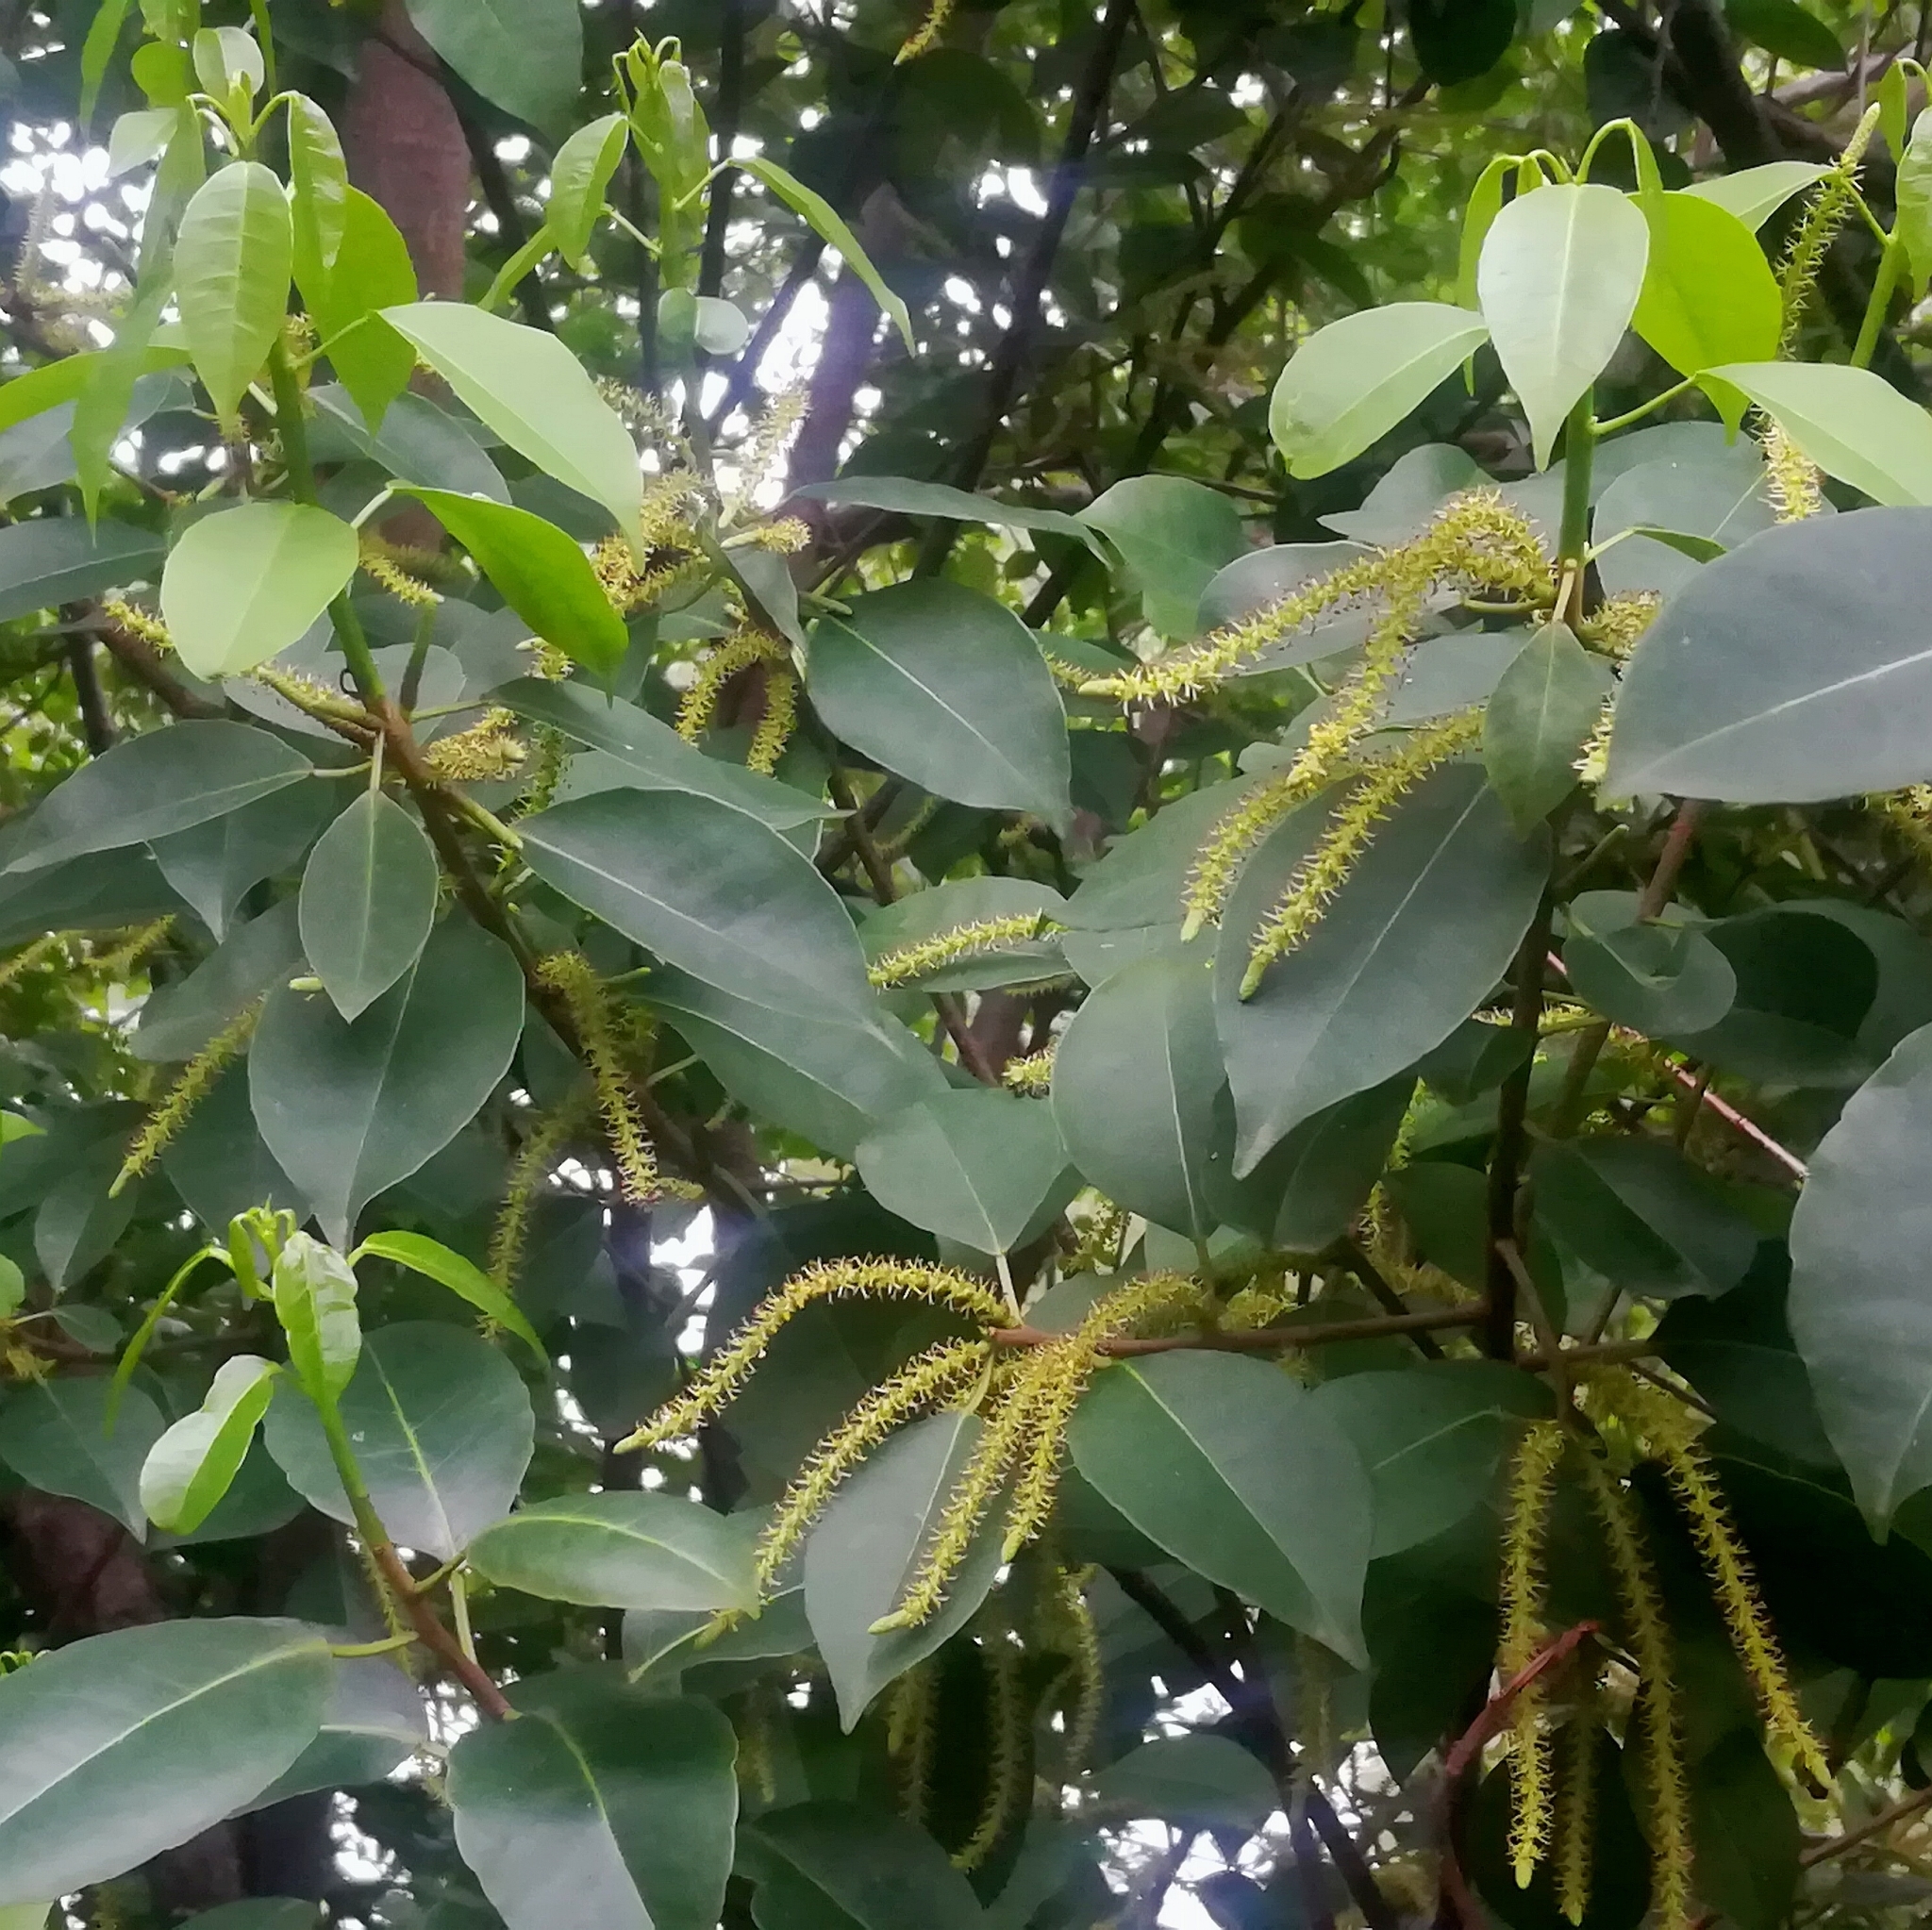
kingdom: Plantae
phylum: Tracheophyta
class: Magnoliopsida
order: Malpighiales
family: Euphorbiaceae
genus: Excoecaria
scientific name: Excoecaria agallocha
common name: River poisontree
